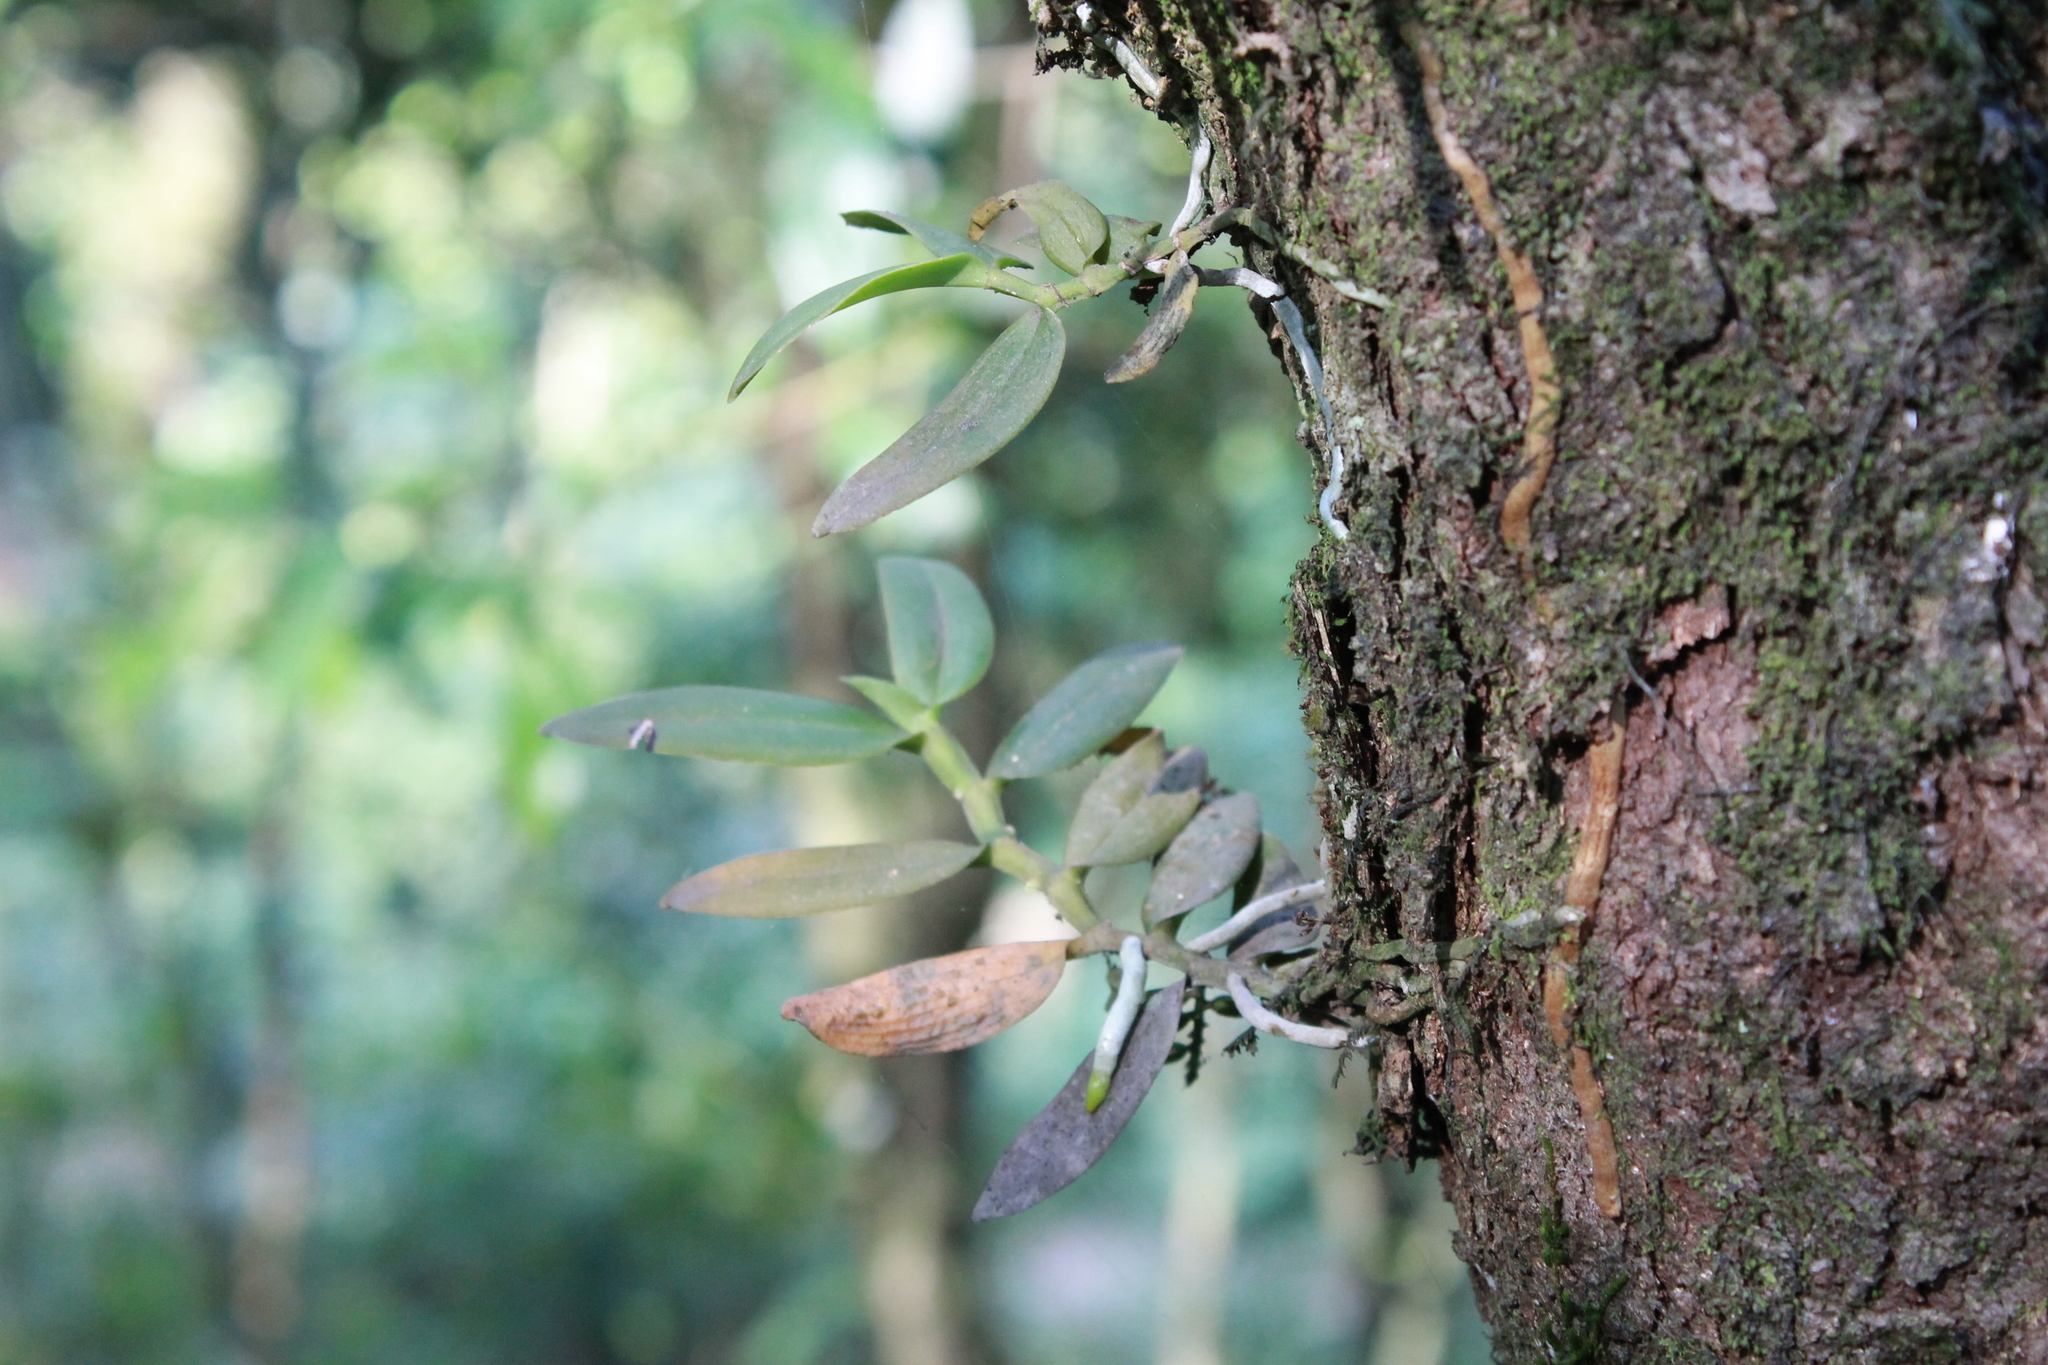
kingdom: Plantae
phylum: Tracheophyta
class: Liliopsida
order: Asparagales
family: Orchidaceae
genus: Campylocentrum
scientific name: Campylocentrum micranthum
